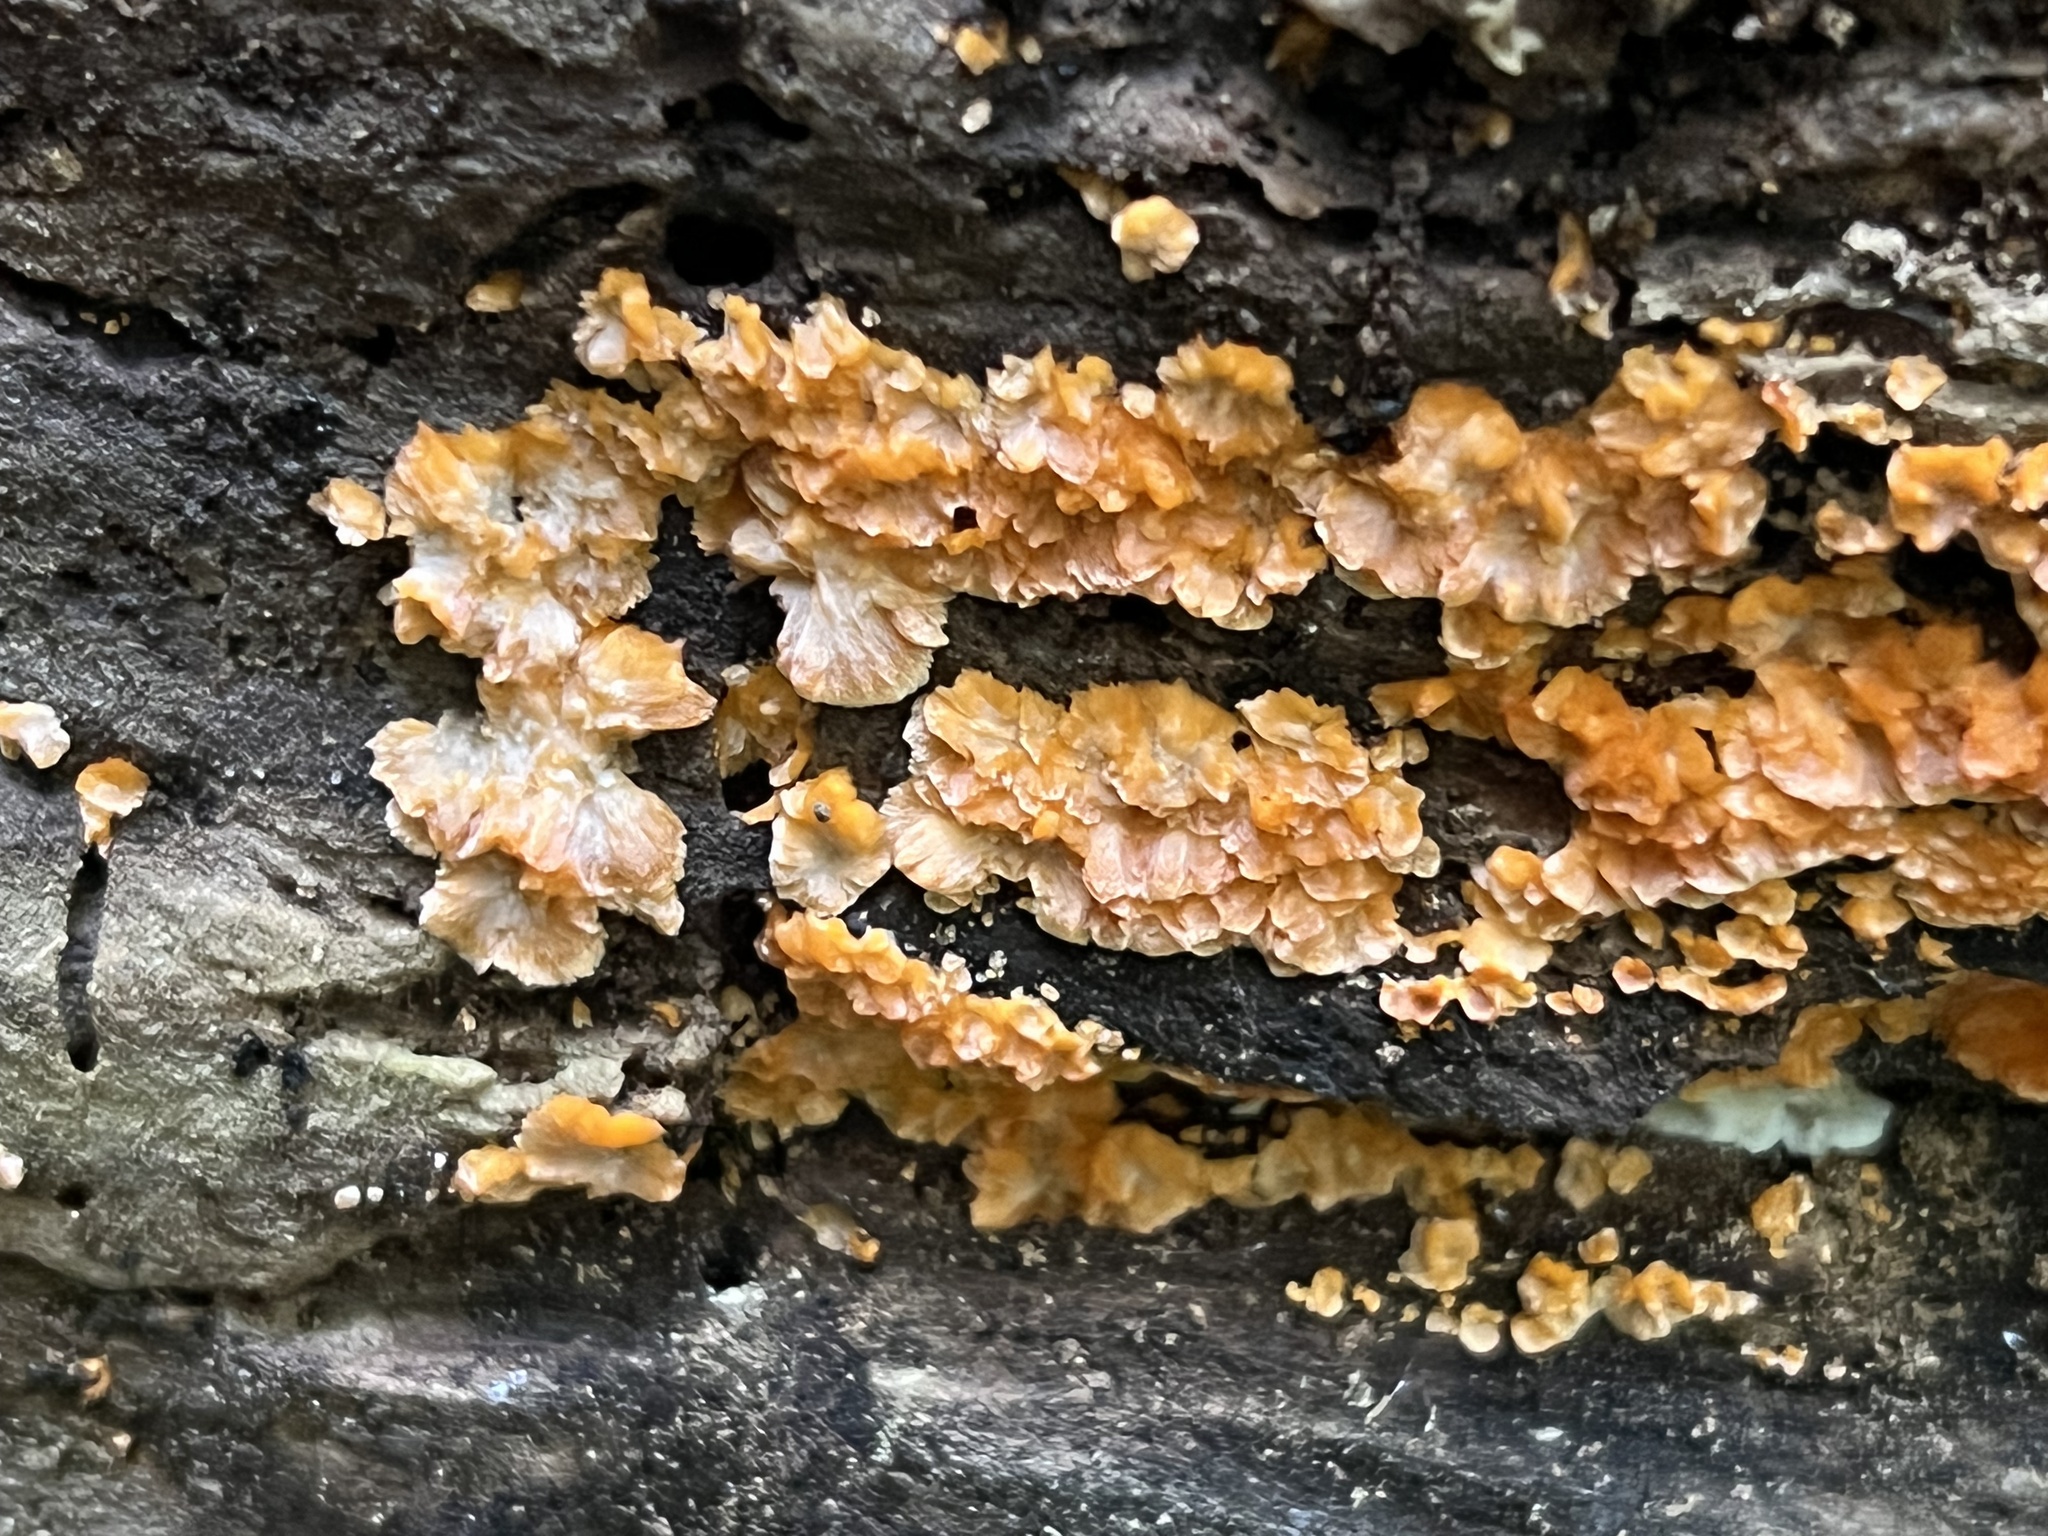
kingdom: Fungi
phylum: Basidiomycota
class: Agaricomycetes
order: Polyporales
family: Meruliaceae
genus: Phlebia
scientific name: Phlebia radiata
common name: Wrinkled crust
